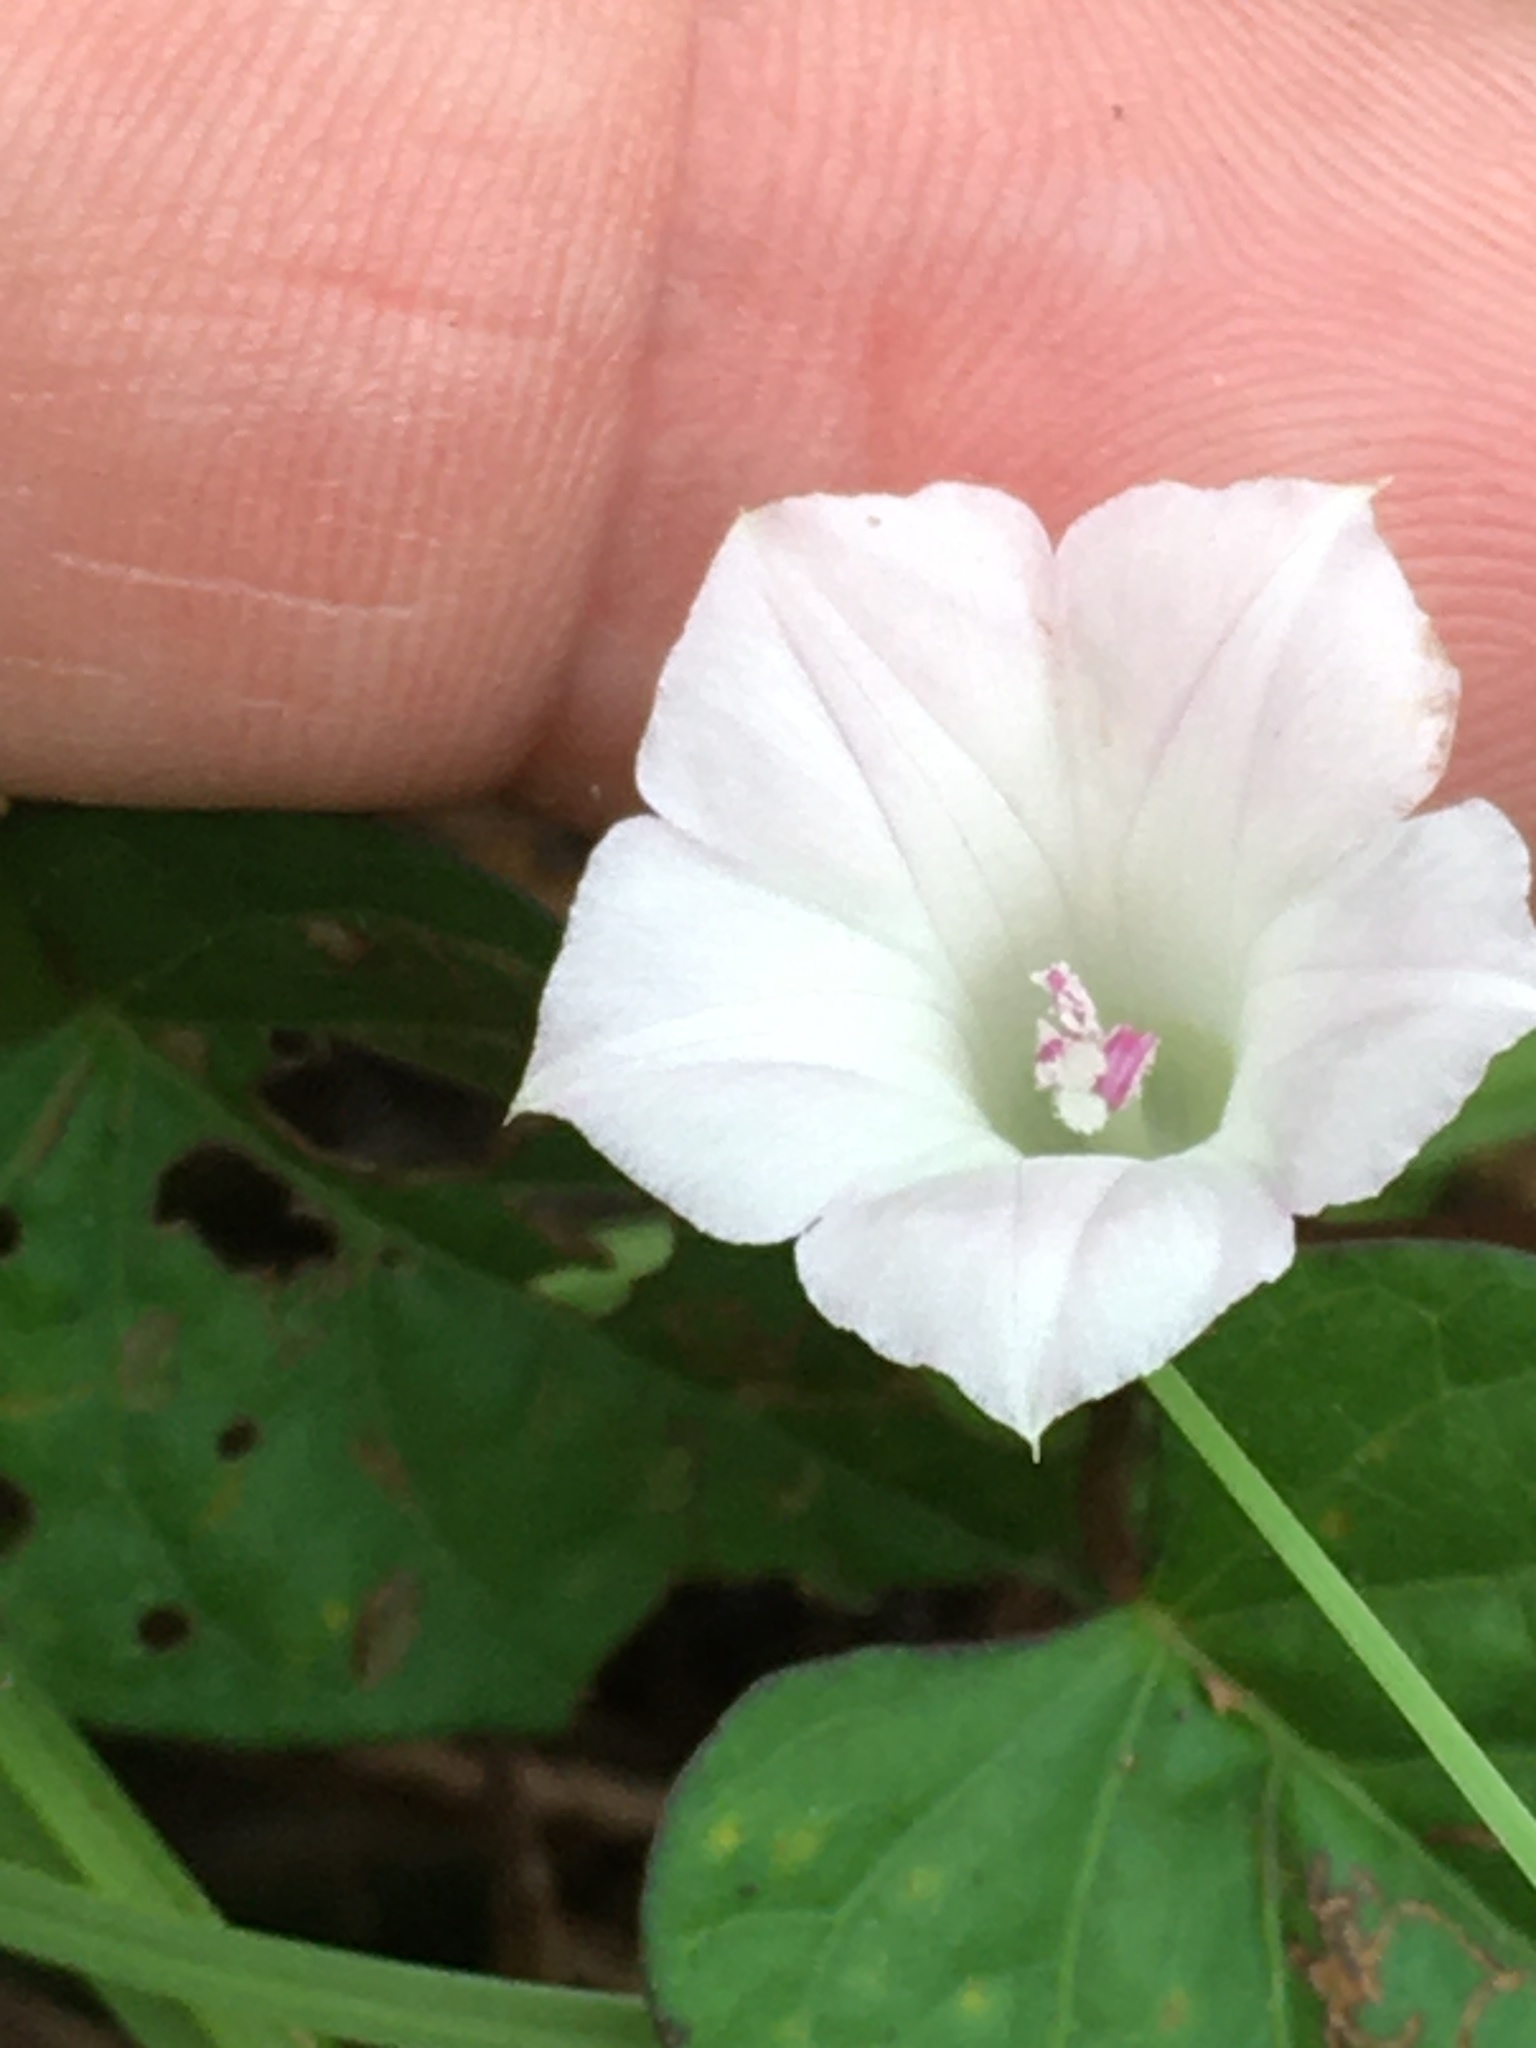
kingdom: Plantae
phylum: Tracheophyta
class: Magnoliopsida
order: Solanales
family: Convolvulaceae
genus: Ipomoea
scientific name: Ipomoea lacunosa
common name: White morning-glory
